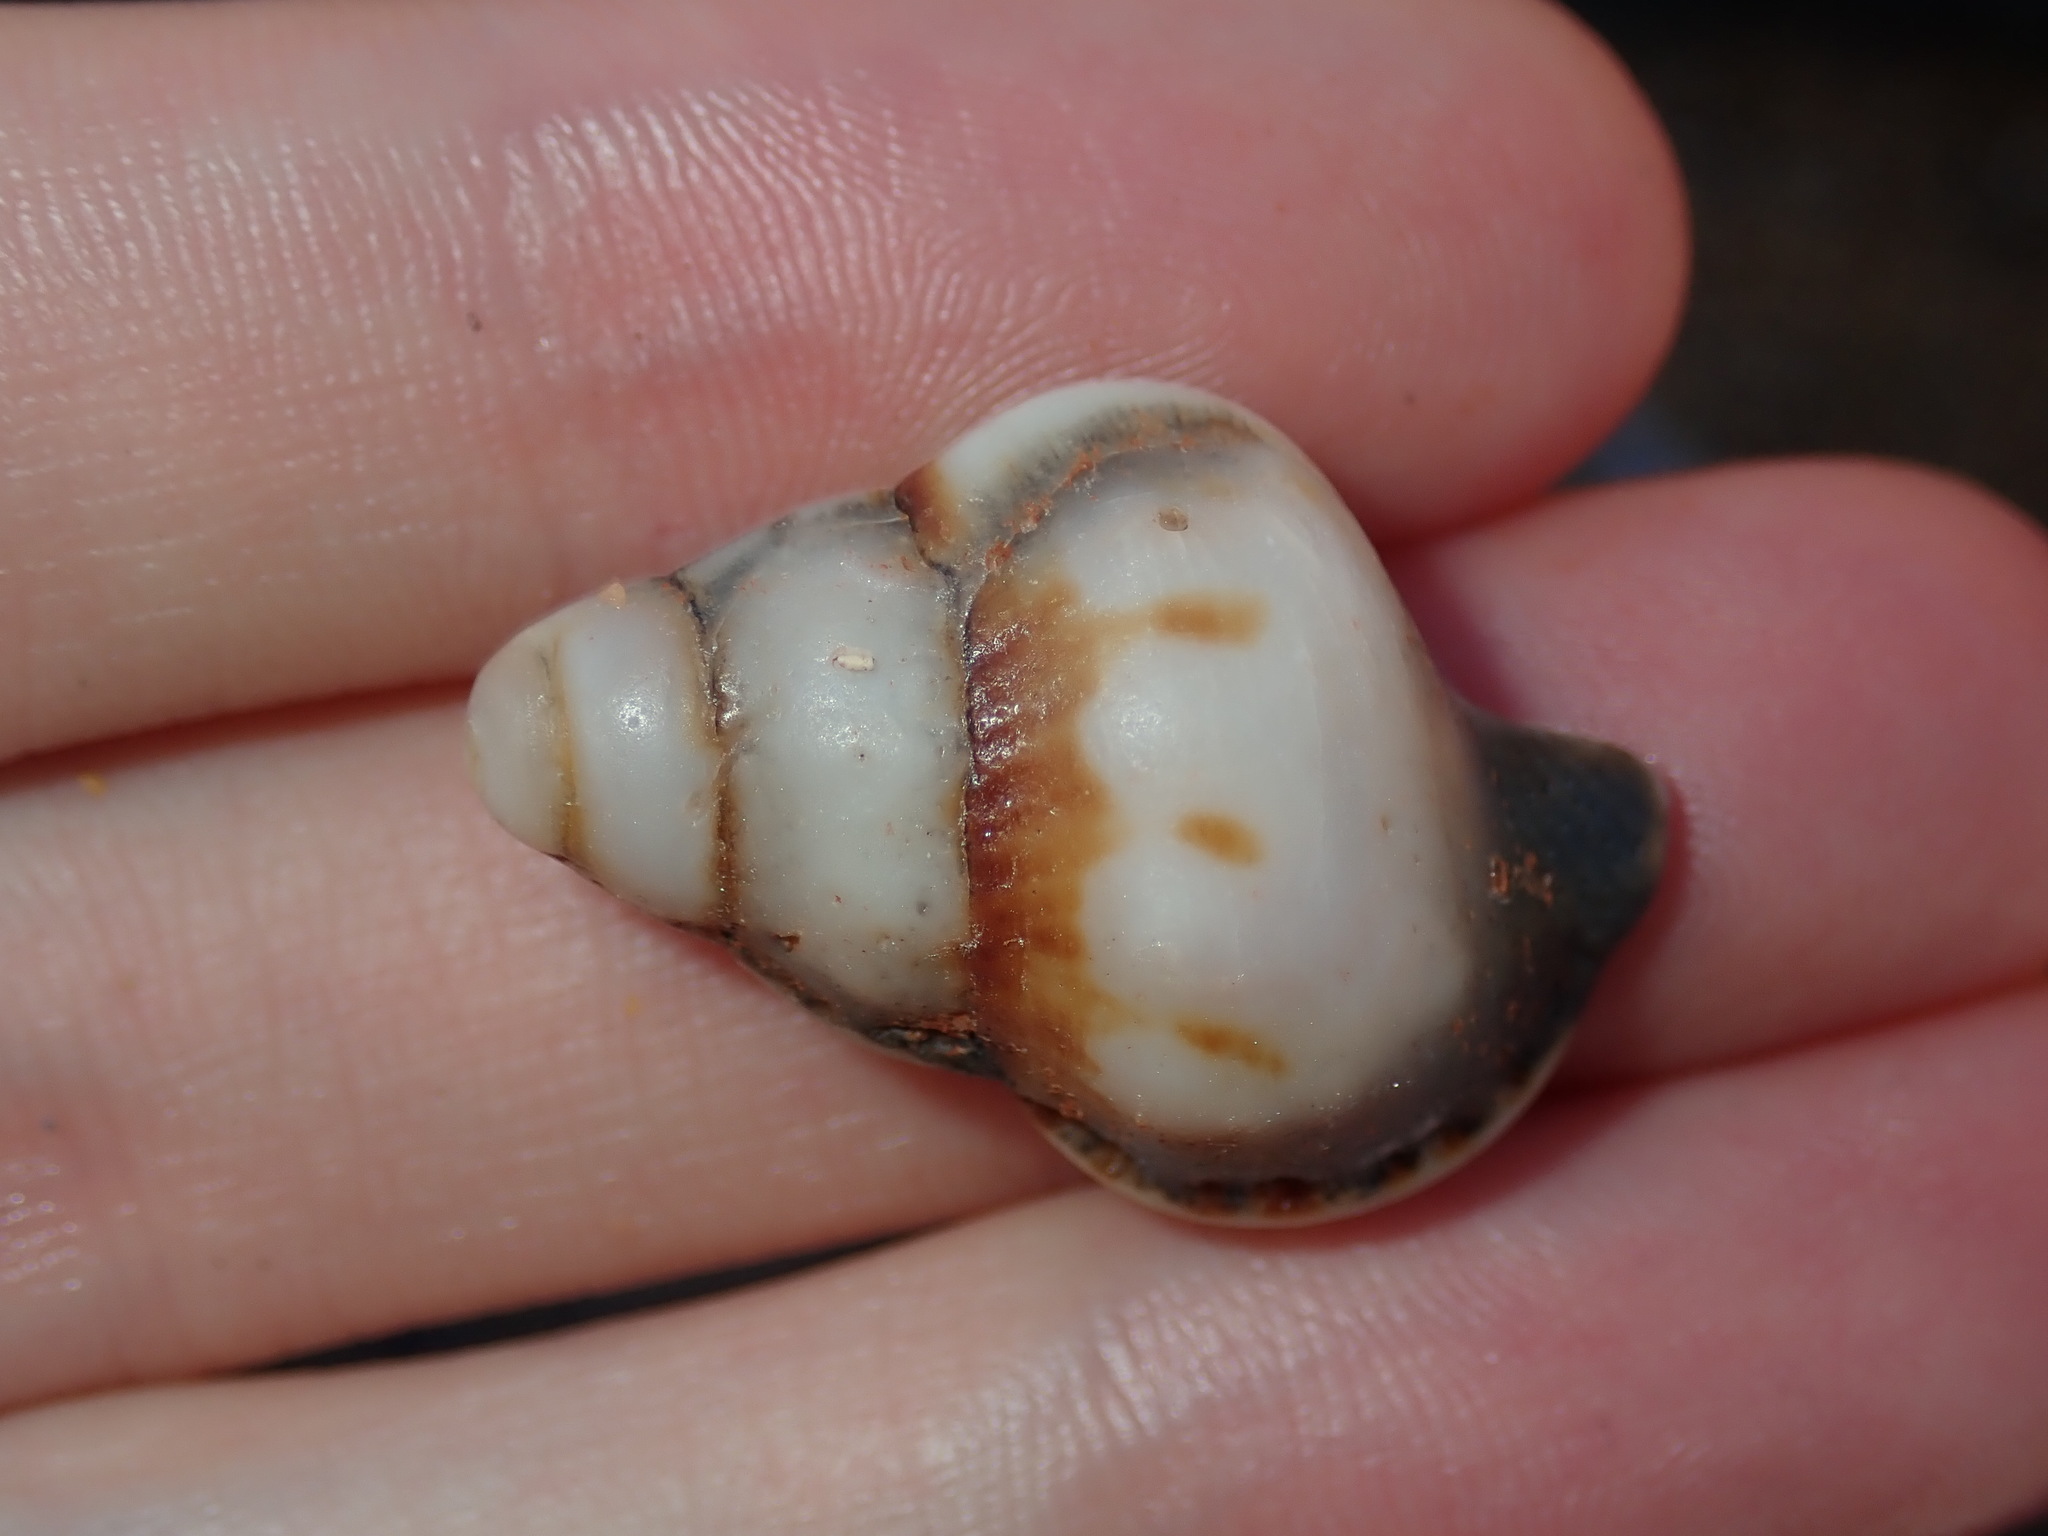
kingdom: Animalia
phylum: Mollusca
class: Gastropoda
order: Littorinimorpha
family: Ranellidae
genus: Ranella
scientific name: Ranella australasia
